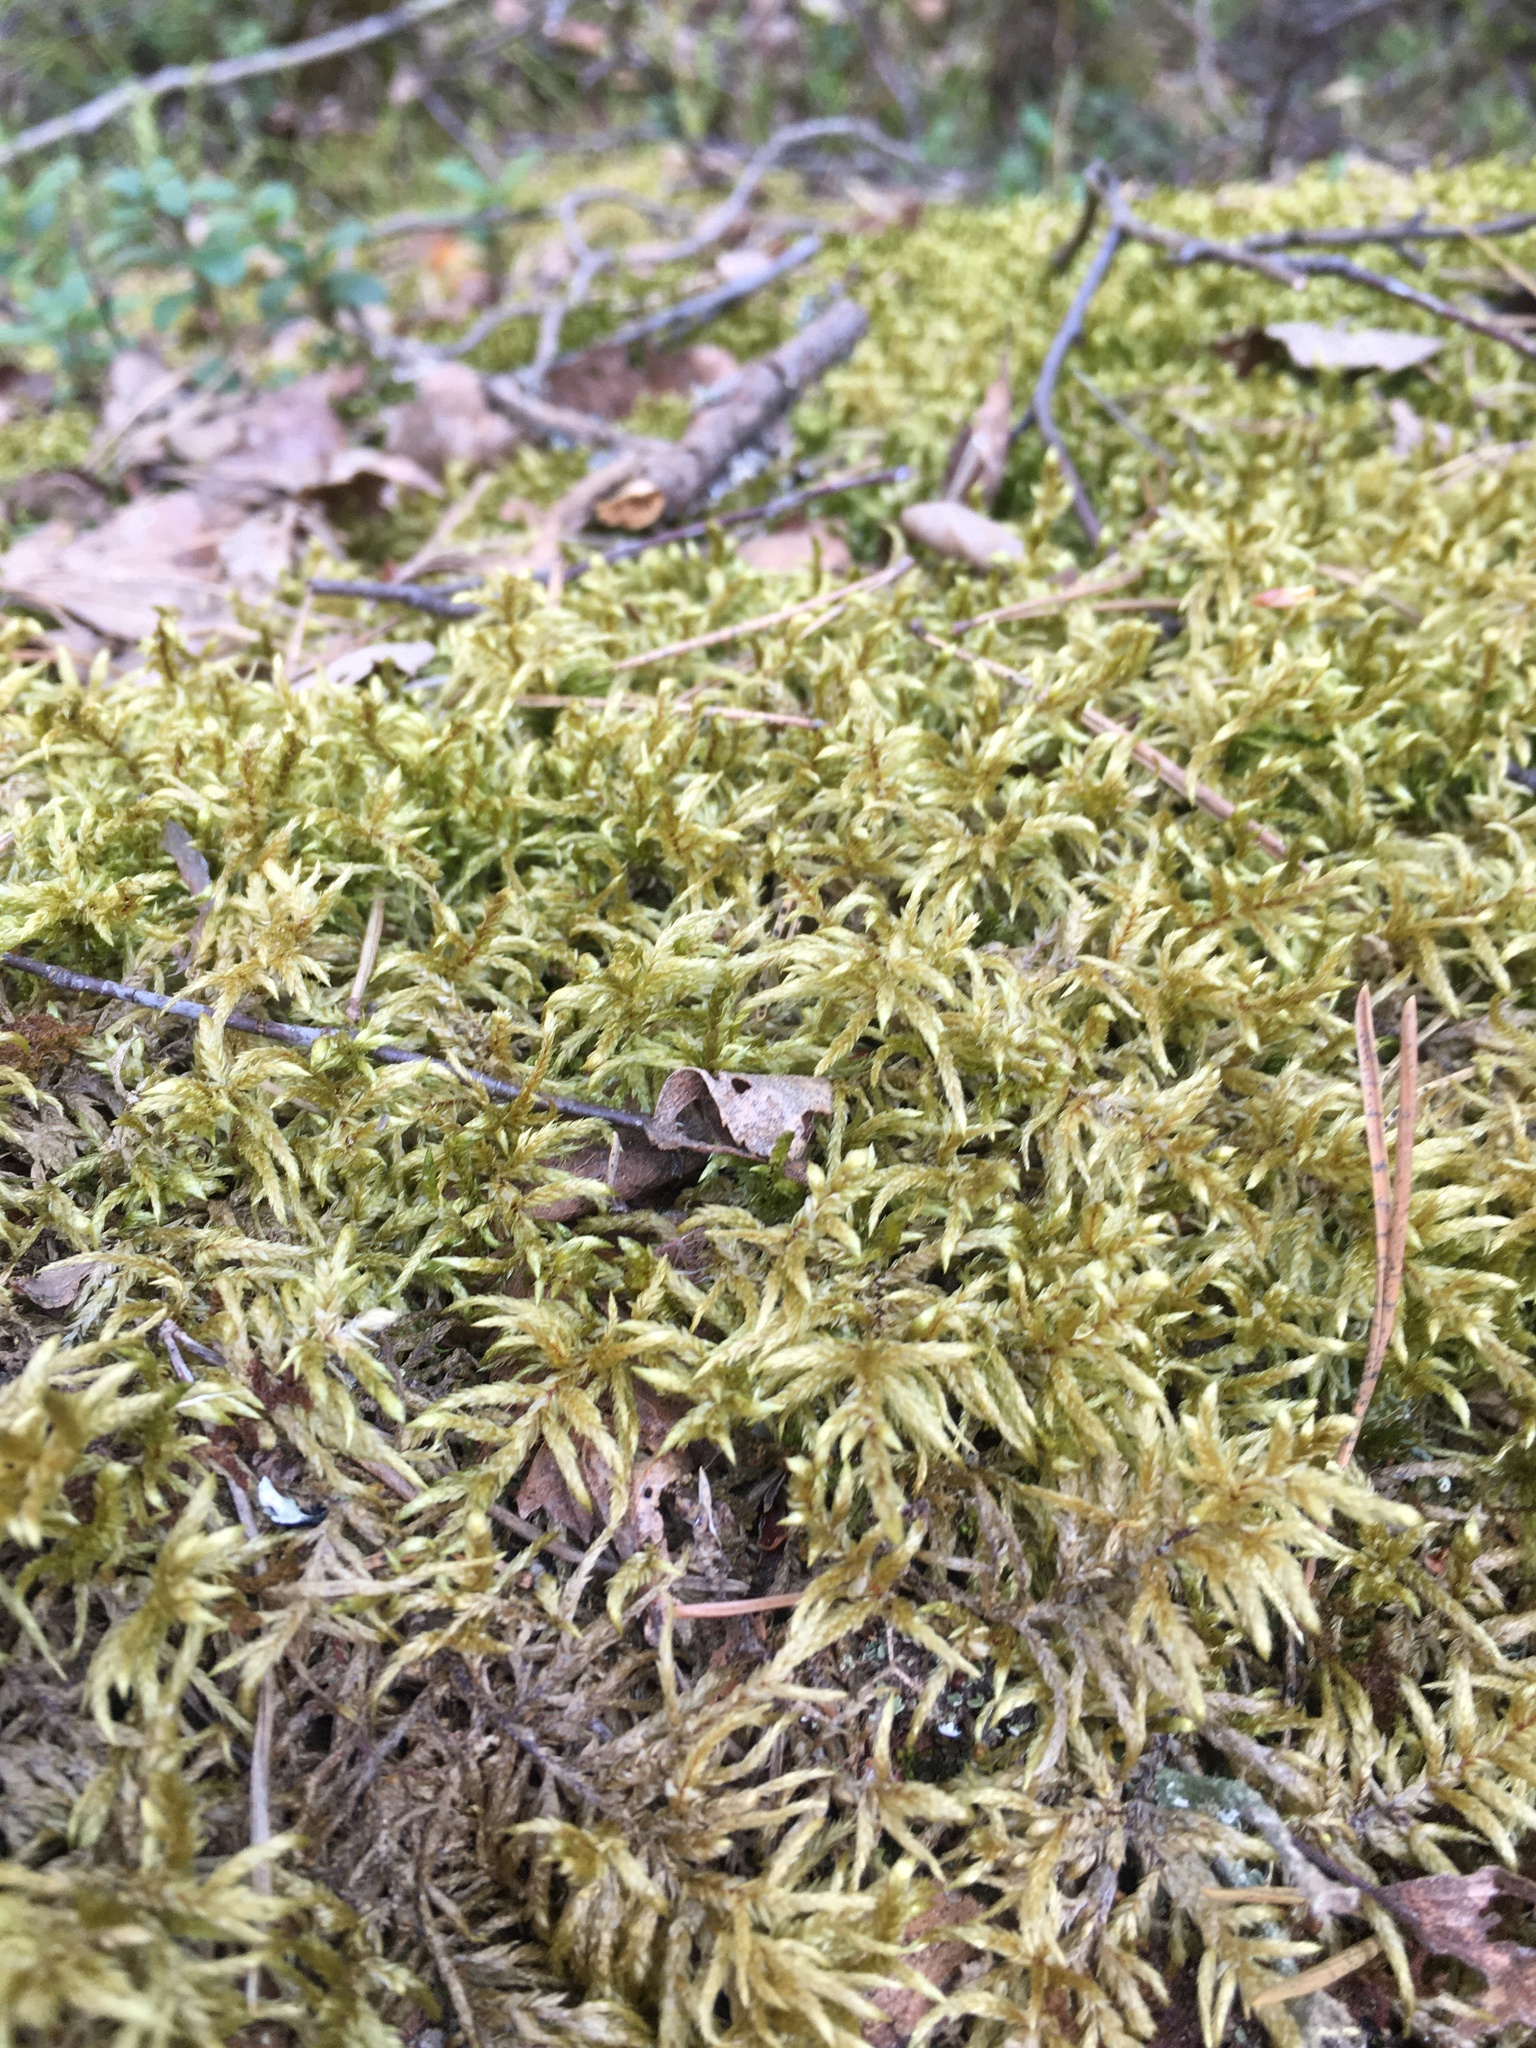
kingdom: Plantae
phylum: Bryophyta
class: Bryopsida
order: Hypnales
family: Hylocomiaceae
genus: Pleurozium
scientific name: Pleurozium schreberi
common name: Red-stemmed feather moss
